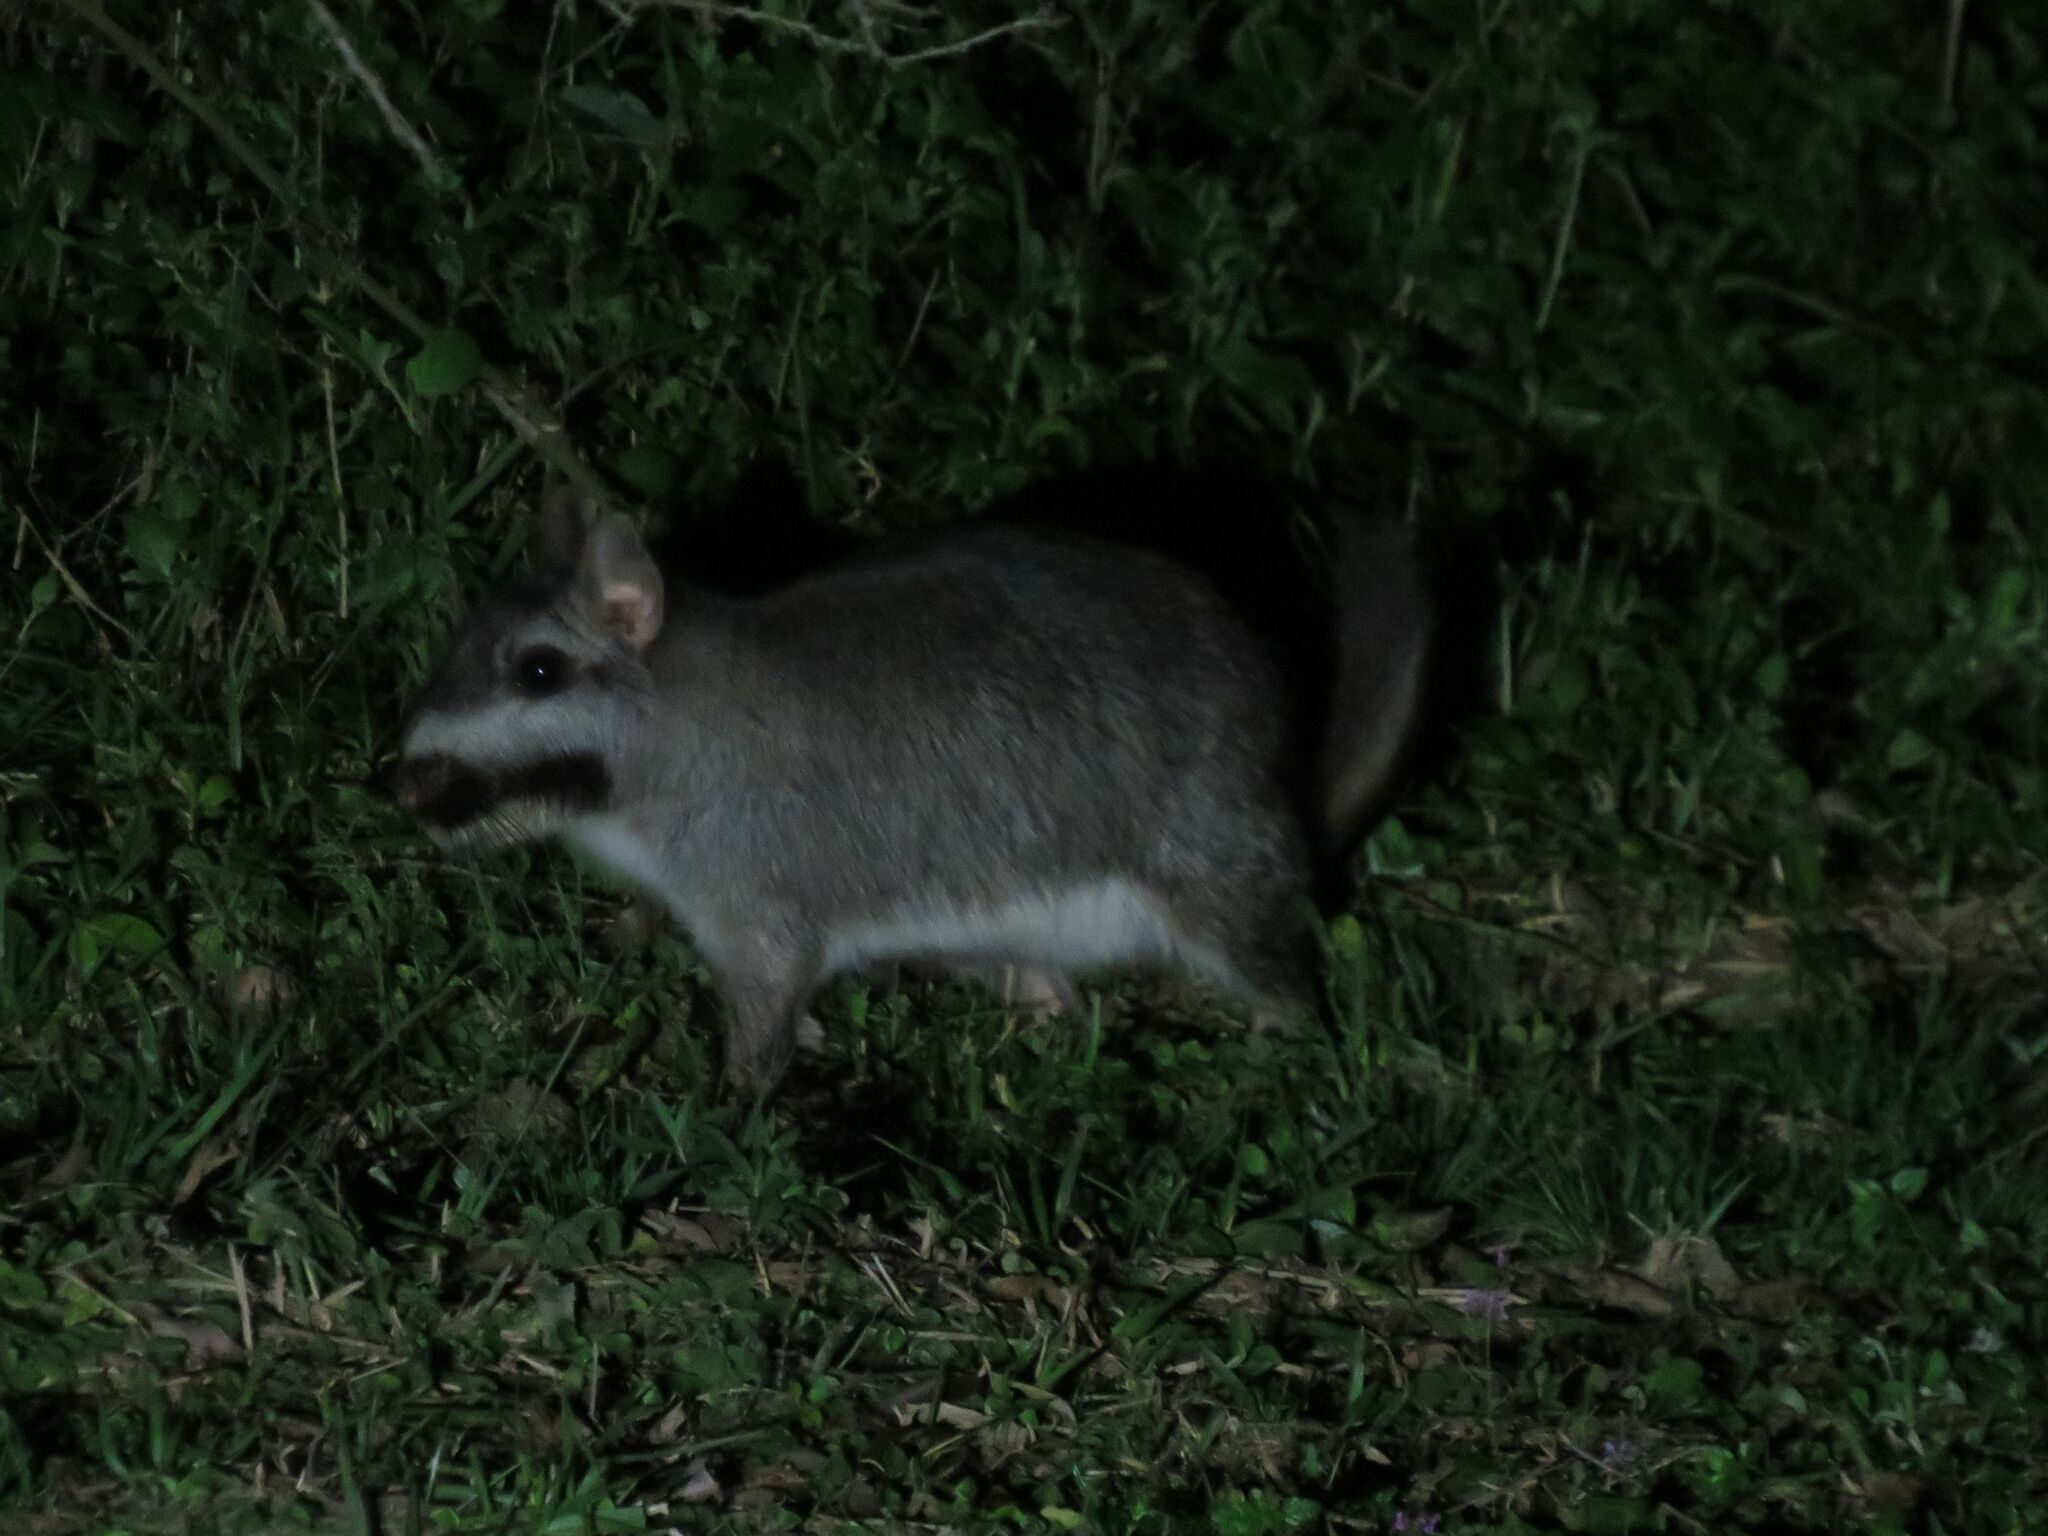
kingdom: Animalia
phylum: Chordata
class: Mammalia
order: Rodentia
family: Chinchillidae
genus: Lagostomus
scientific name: Lagostomus maximus
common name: Plains viscacha
